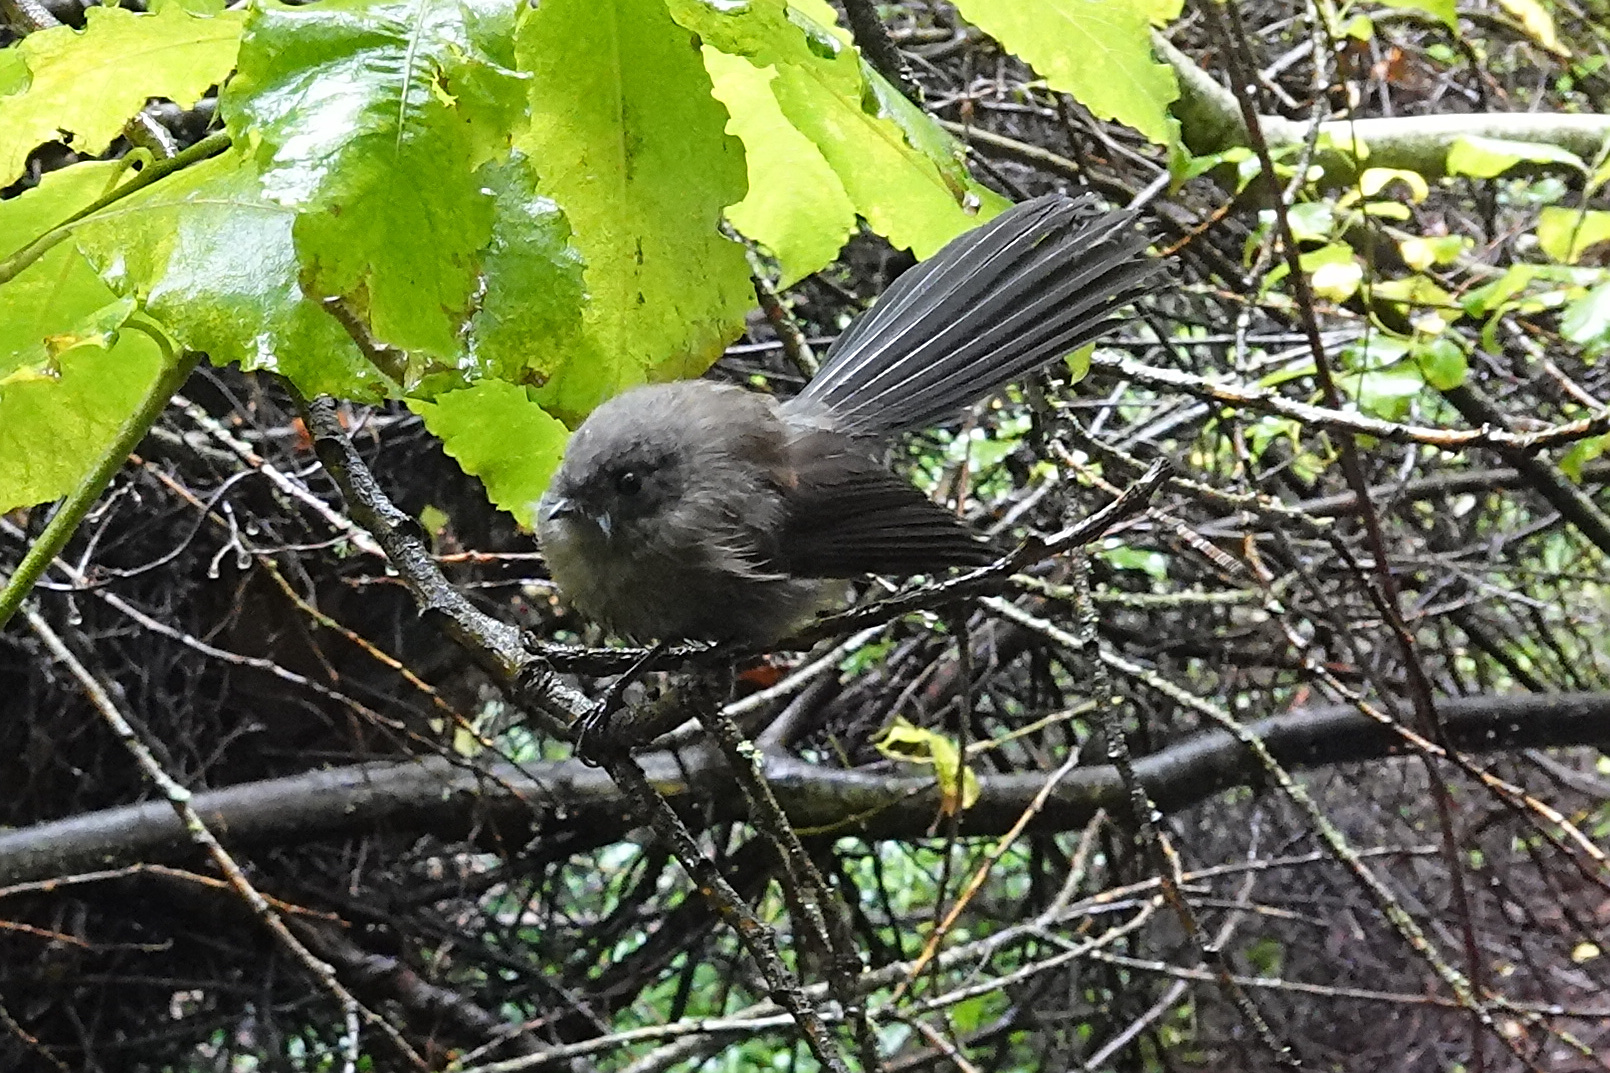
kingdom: Animalia
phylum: Chordata
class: Aves
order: Passeriformes
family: Rhipiduridae
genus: Rhipidura
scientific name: Rhipidura fuliginosa
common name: New zealand fantail
